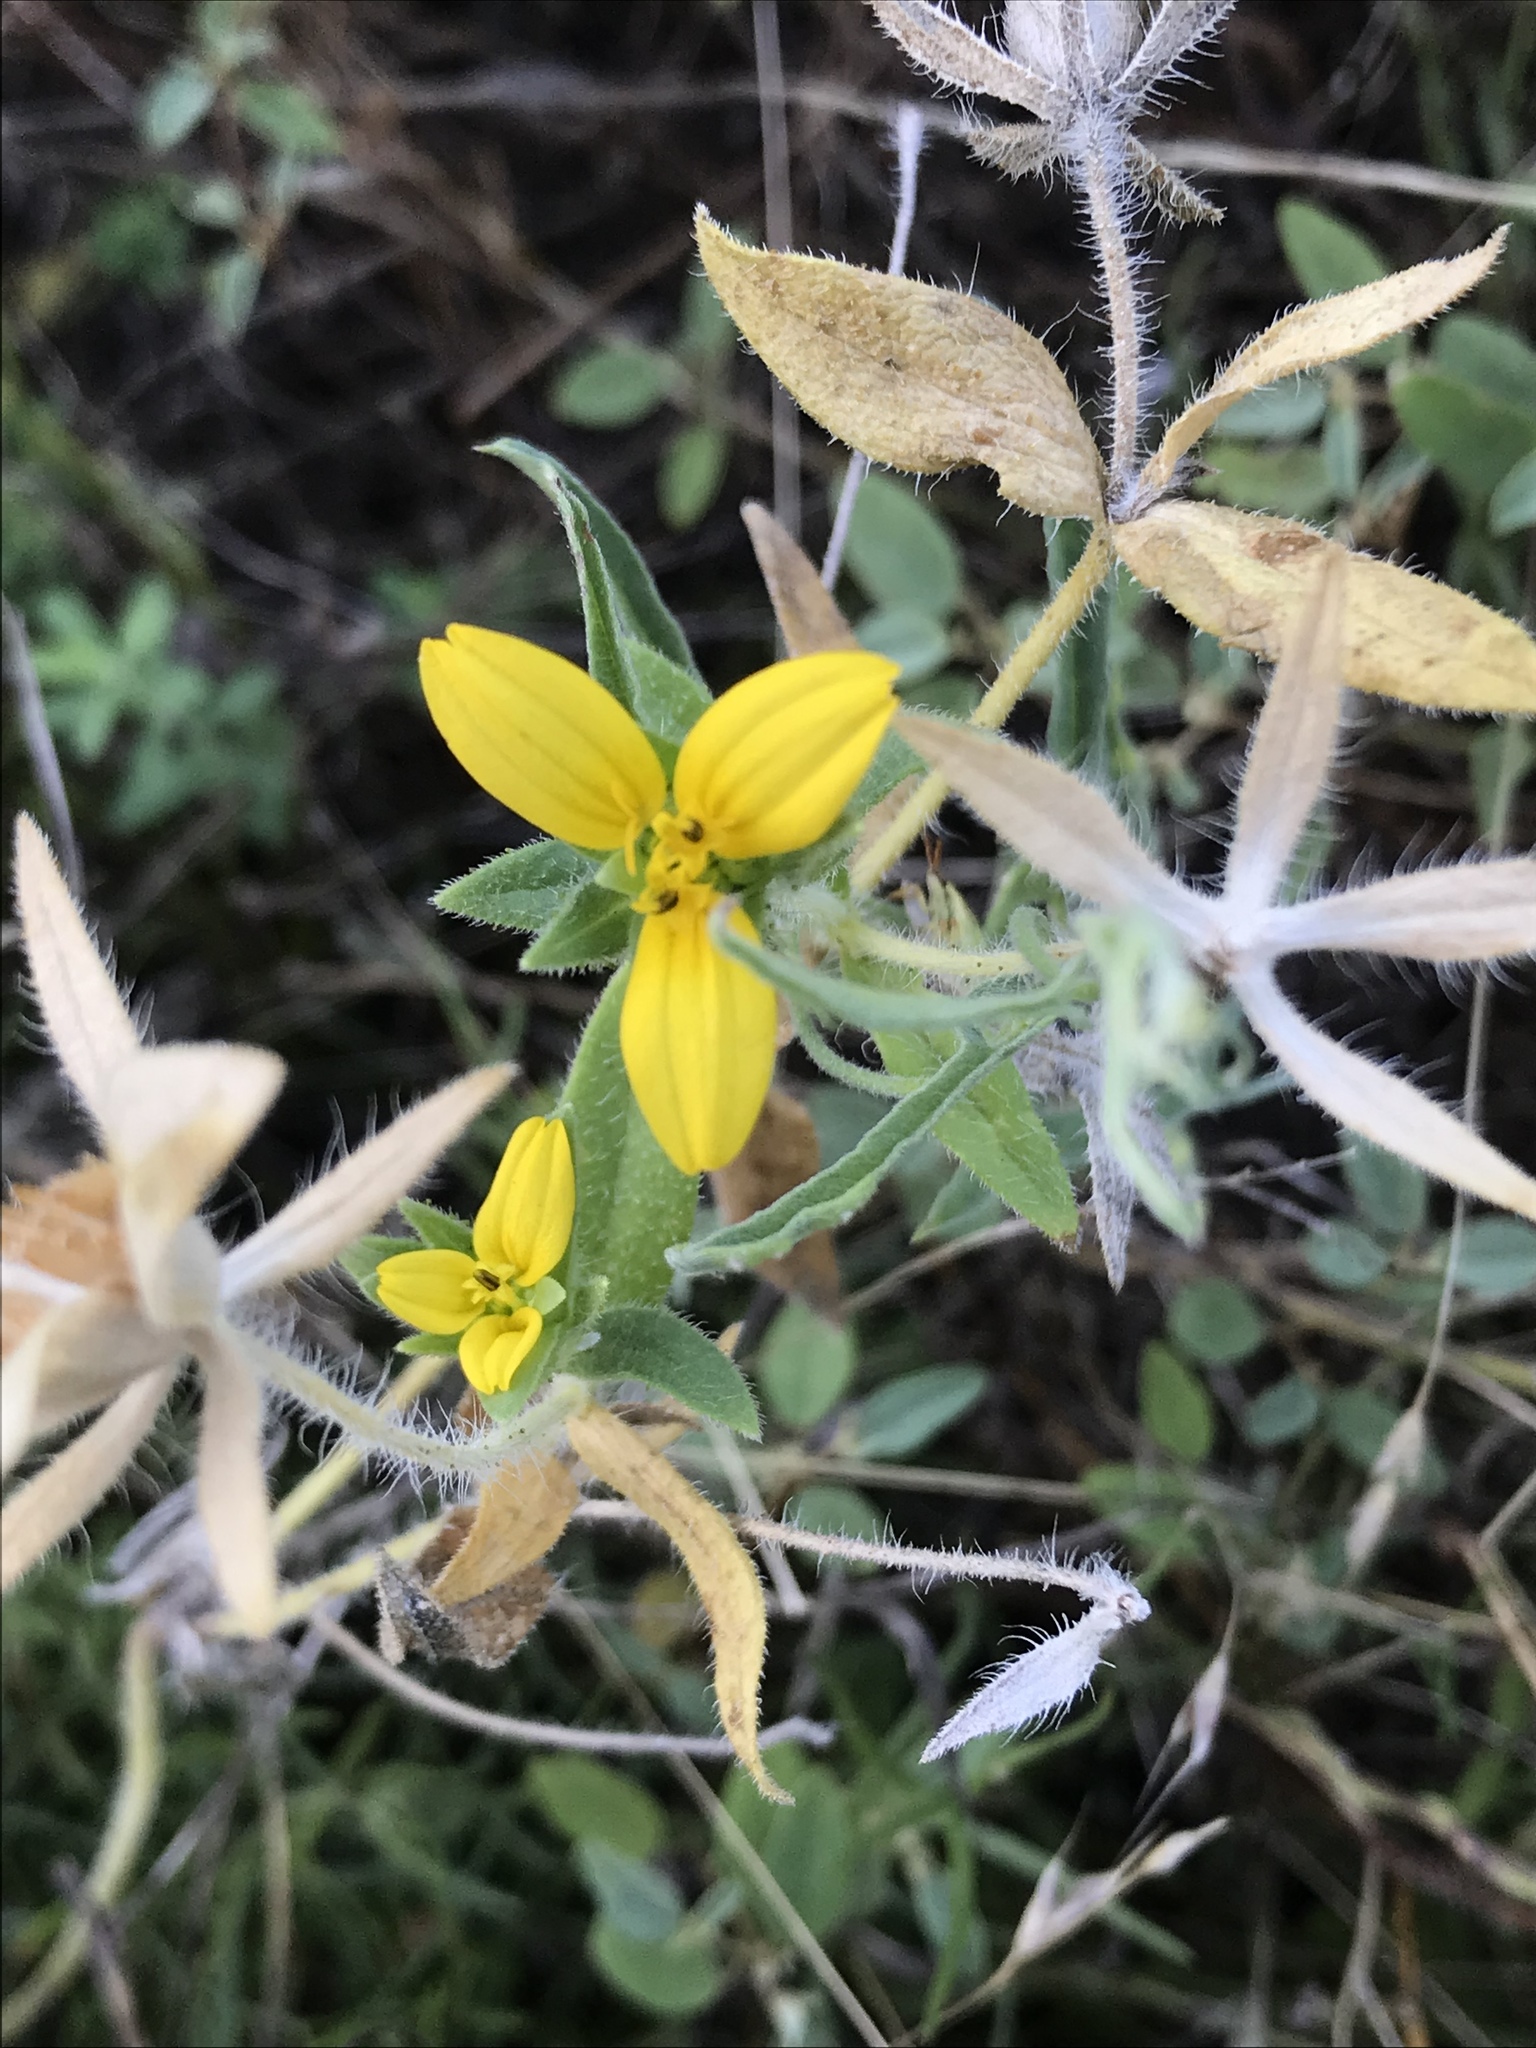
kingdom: Plantae
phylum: Tracheophyta
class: Magnoliopsida
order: Asterales
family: Asteraceae
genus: Lindheimera
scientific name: Lindheimera texana
